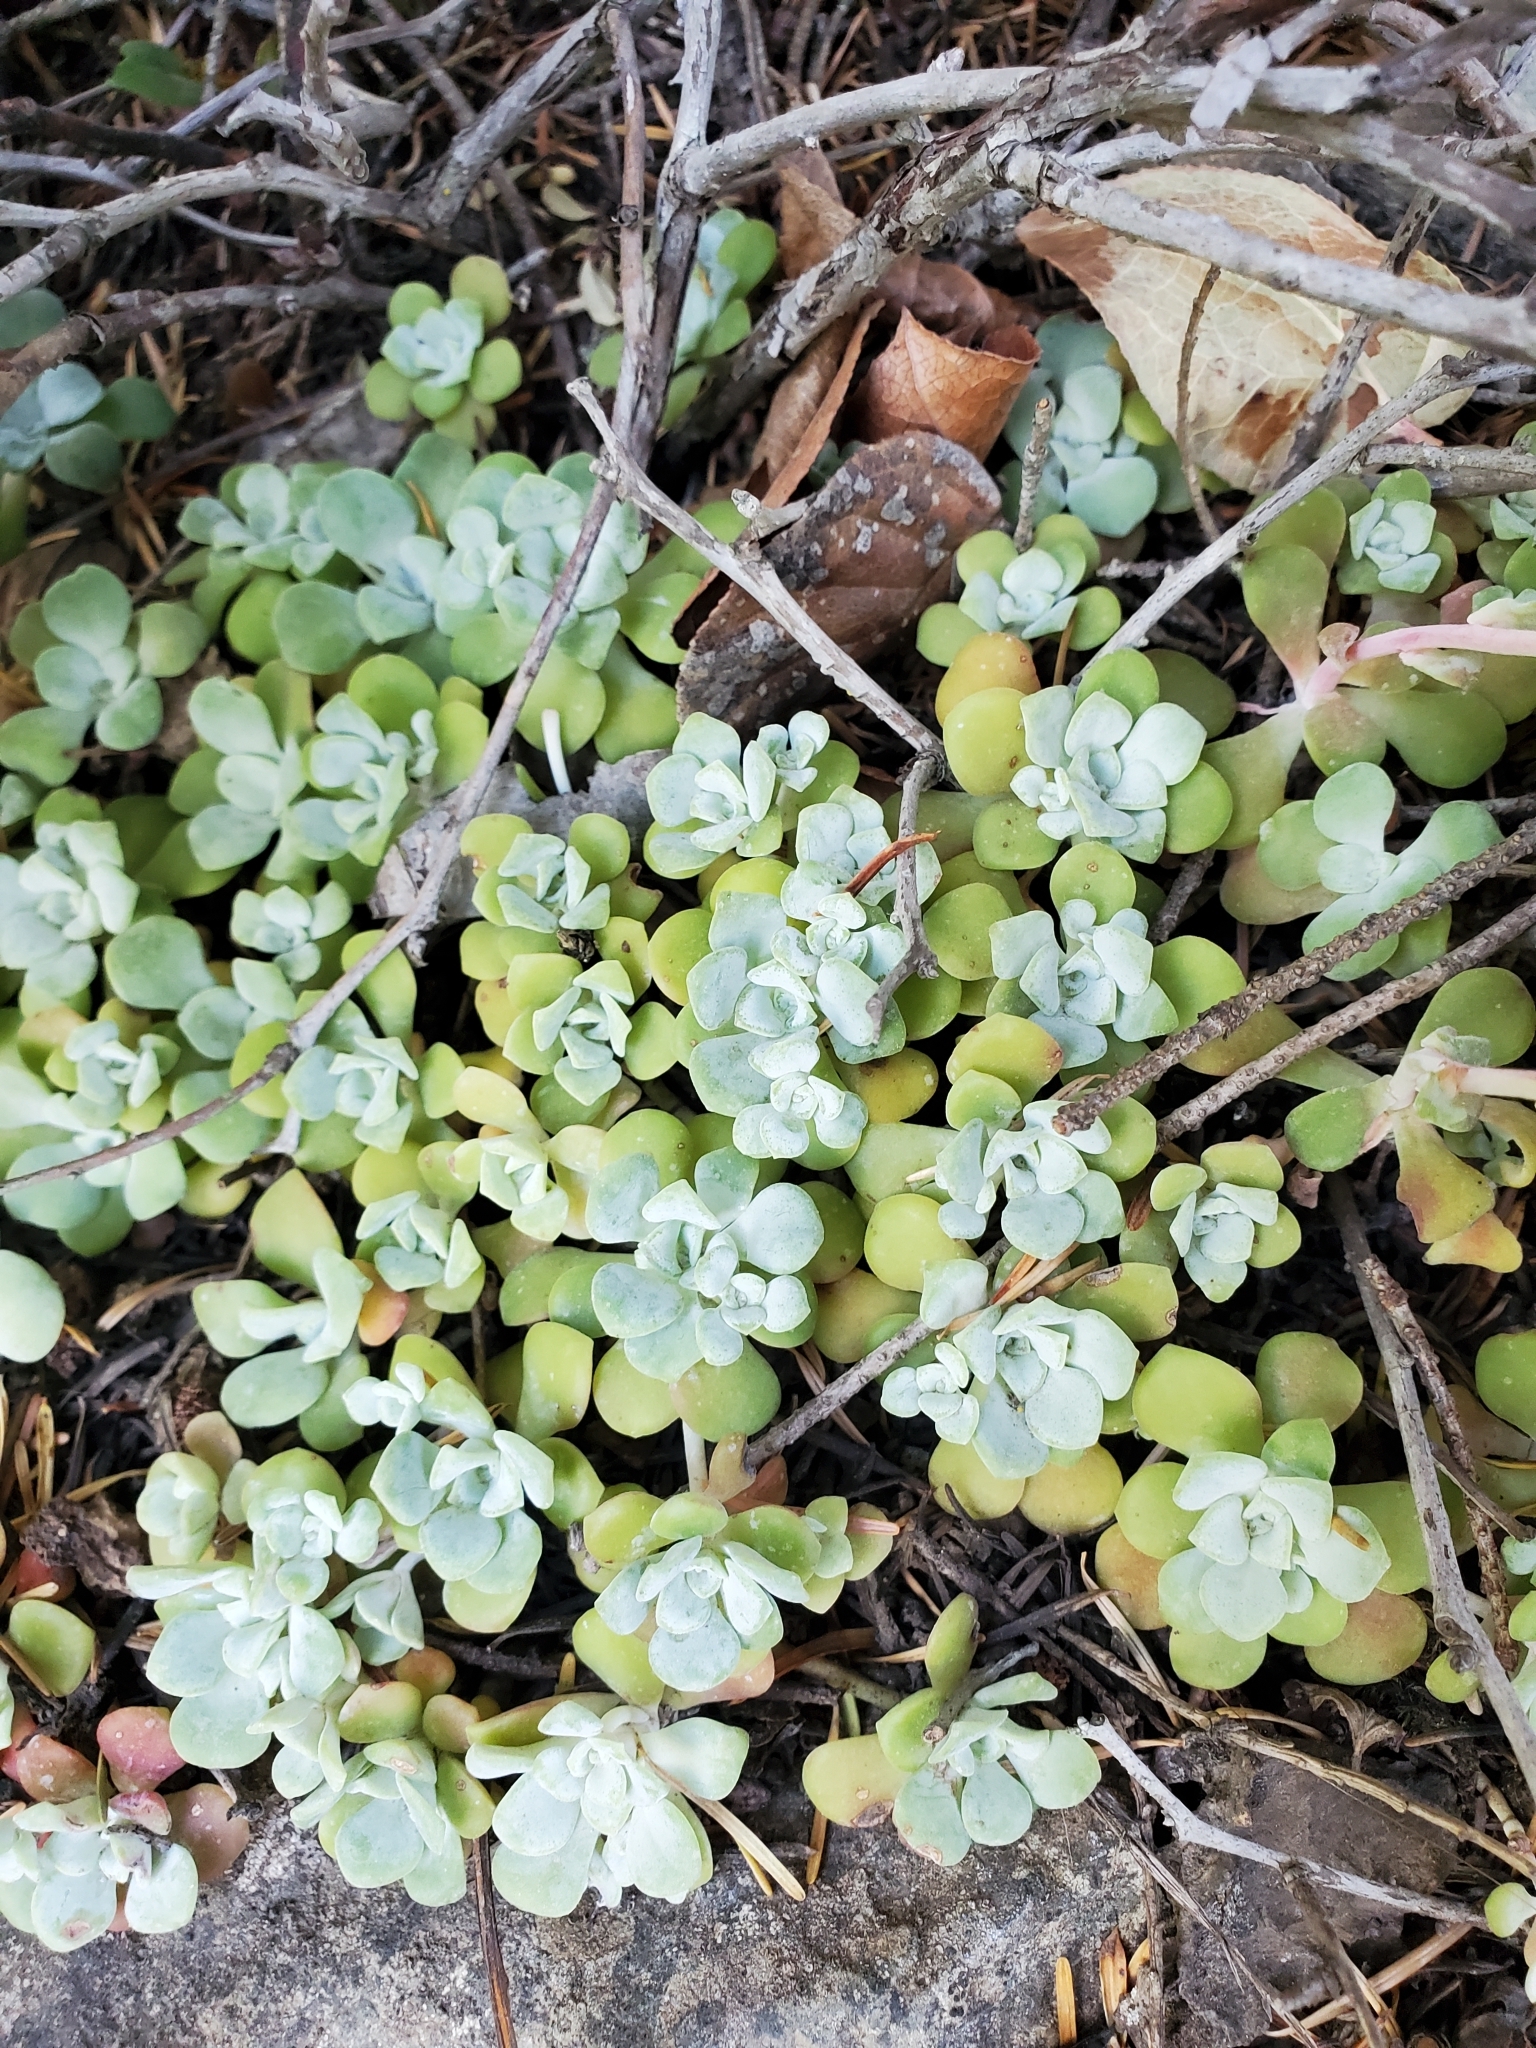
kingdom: Plantae
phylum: Tracheophyta
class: Magnoliopsida
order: Saxifragales
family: Crassulaceae
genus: Sedum
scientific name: Sedum spathulifolium
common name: Colorado stonecrop
